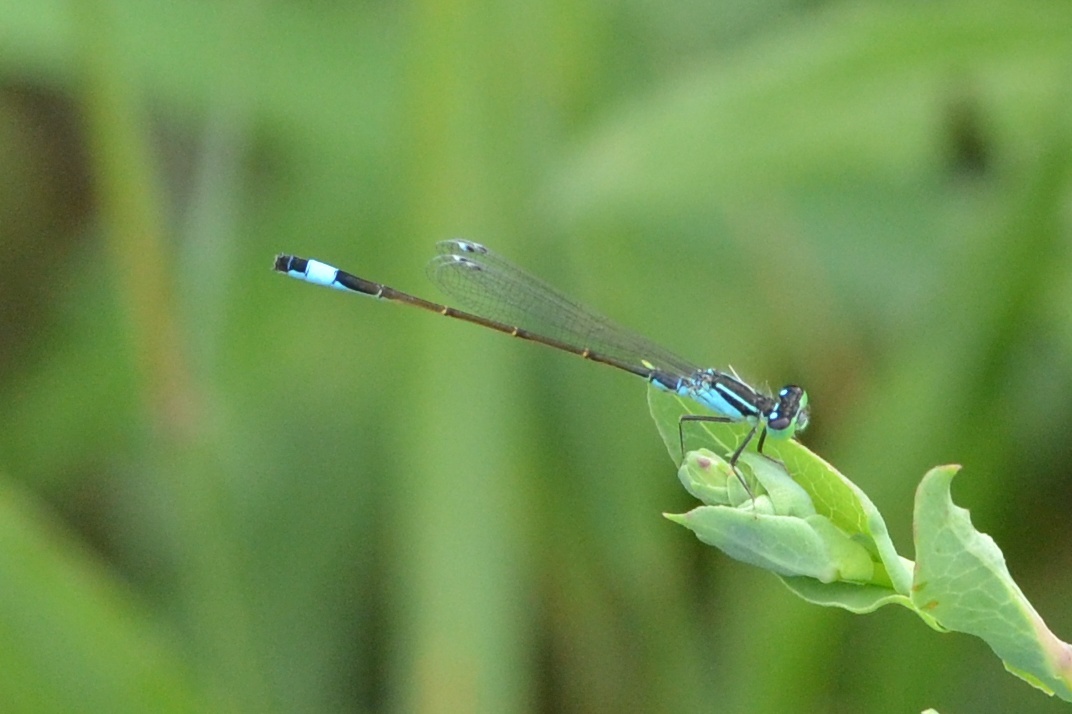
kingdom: Animalia
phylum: Arthropoda
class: Insecta
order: Odonata
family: Coenagrionidae
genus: Ischnura
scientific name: Ischnura elegans
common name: Blue-tailed damselfly
